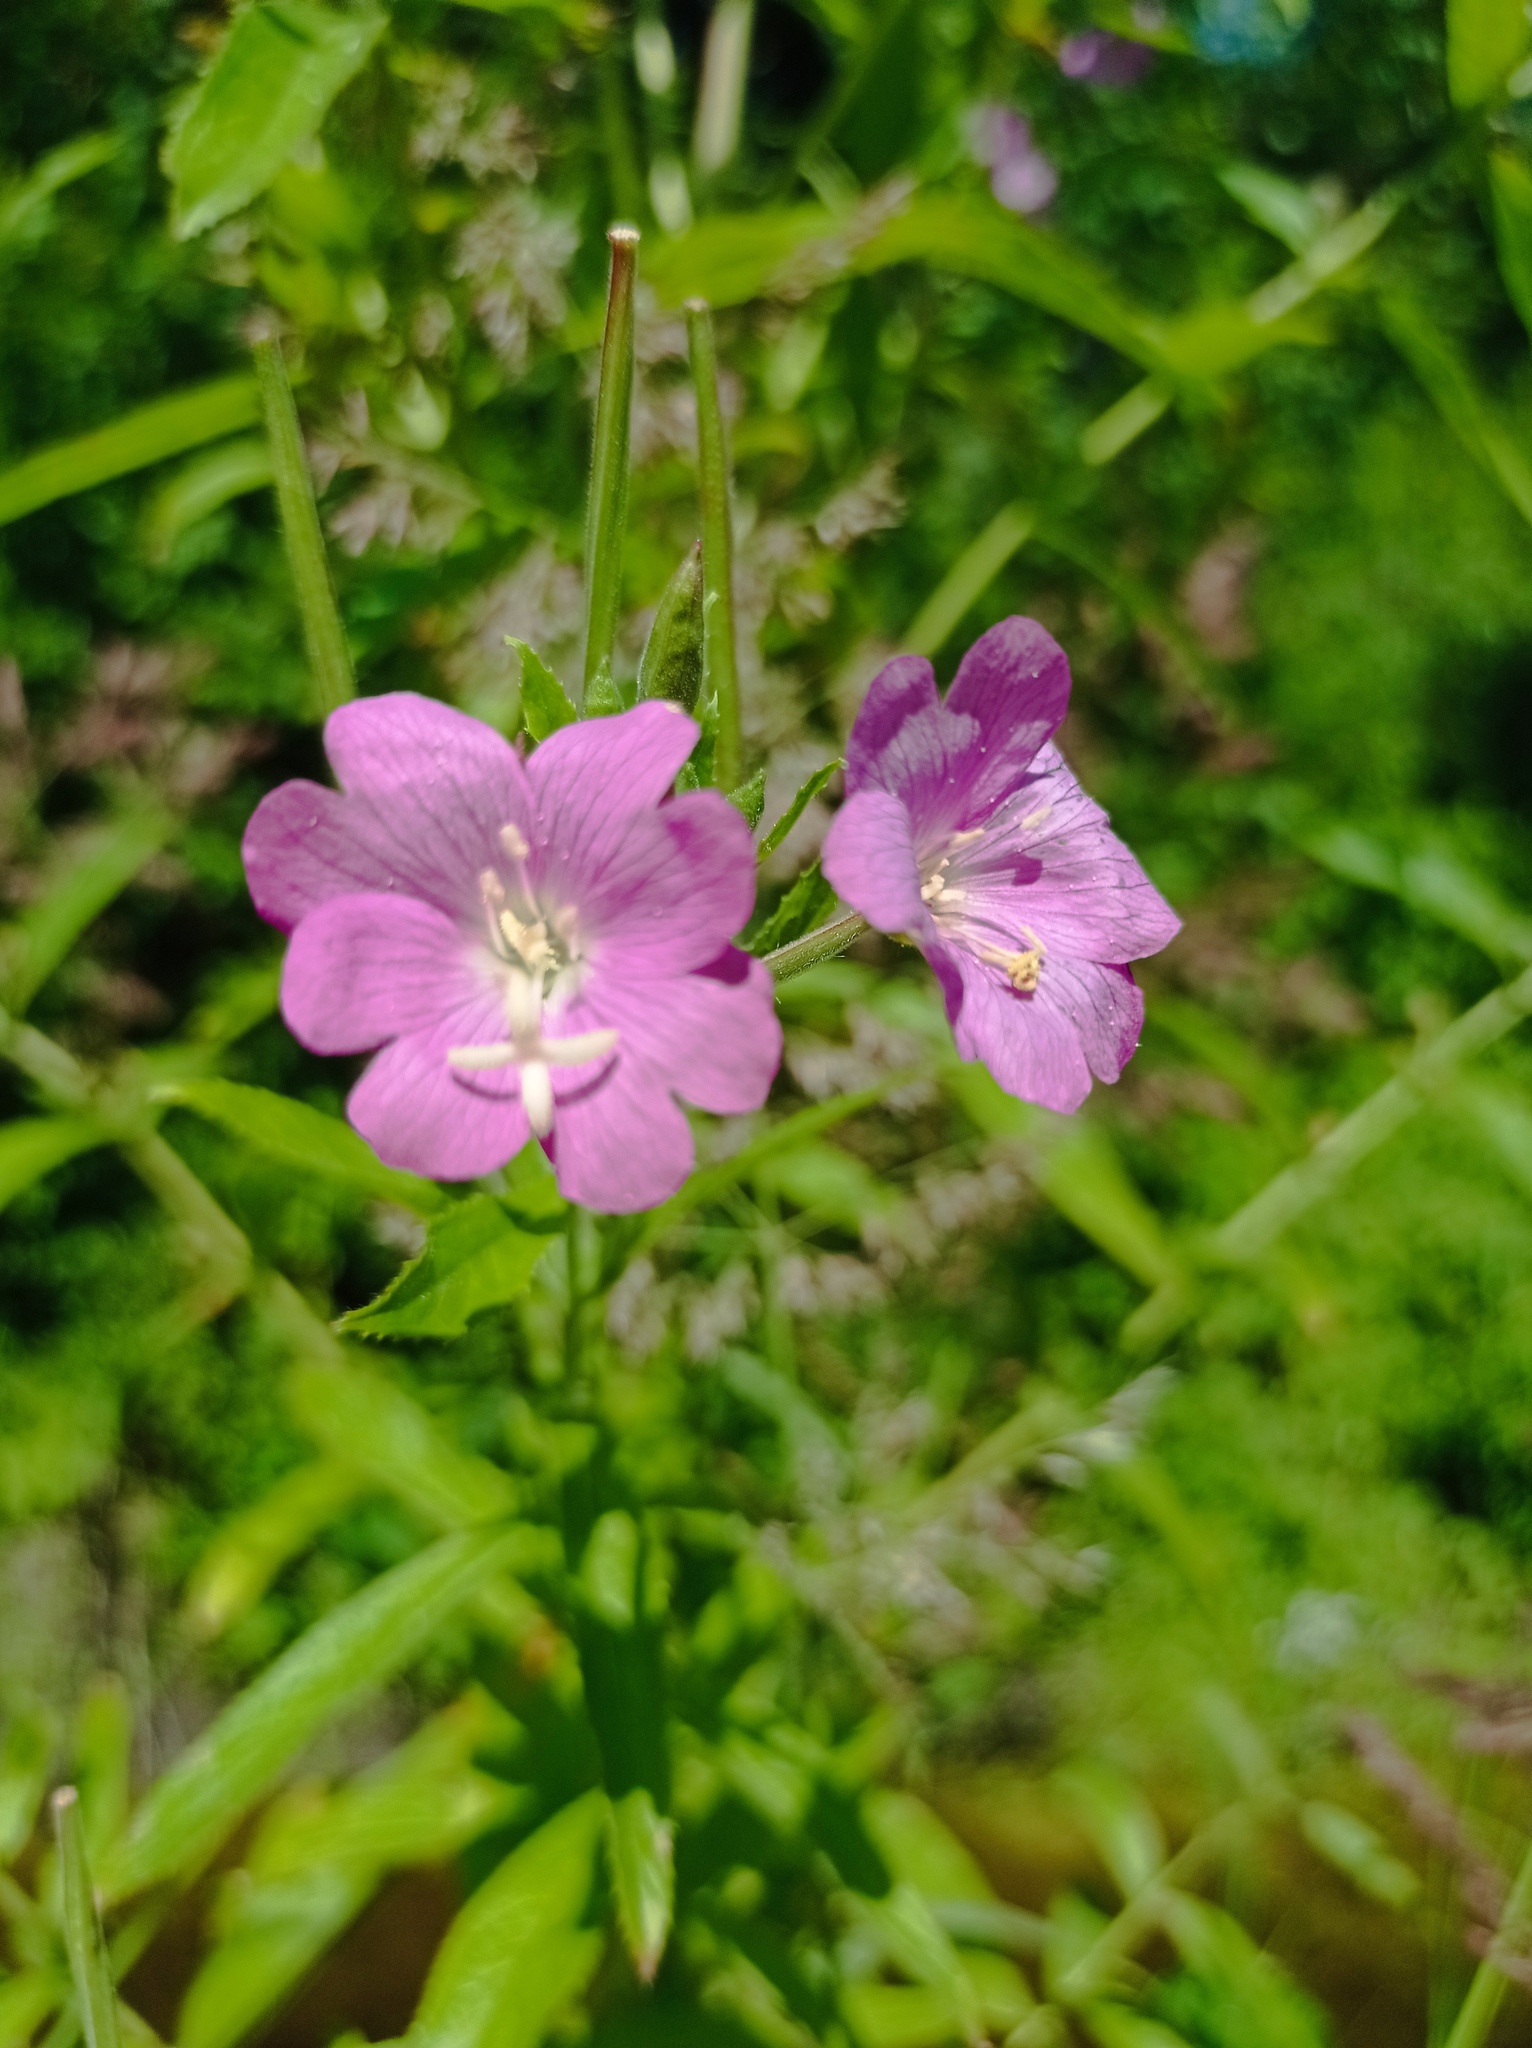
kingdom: Plantae
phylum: Tracheophyta
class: Magnoliopsida
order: Myrtales
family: Onagraceae
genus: Epilobium
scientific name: Epilobium hirsutum
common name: Great willowherb
